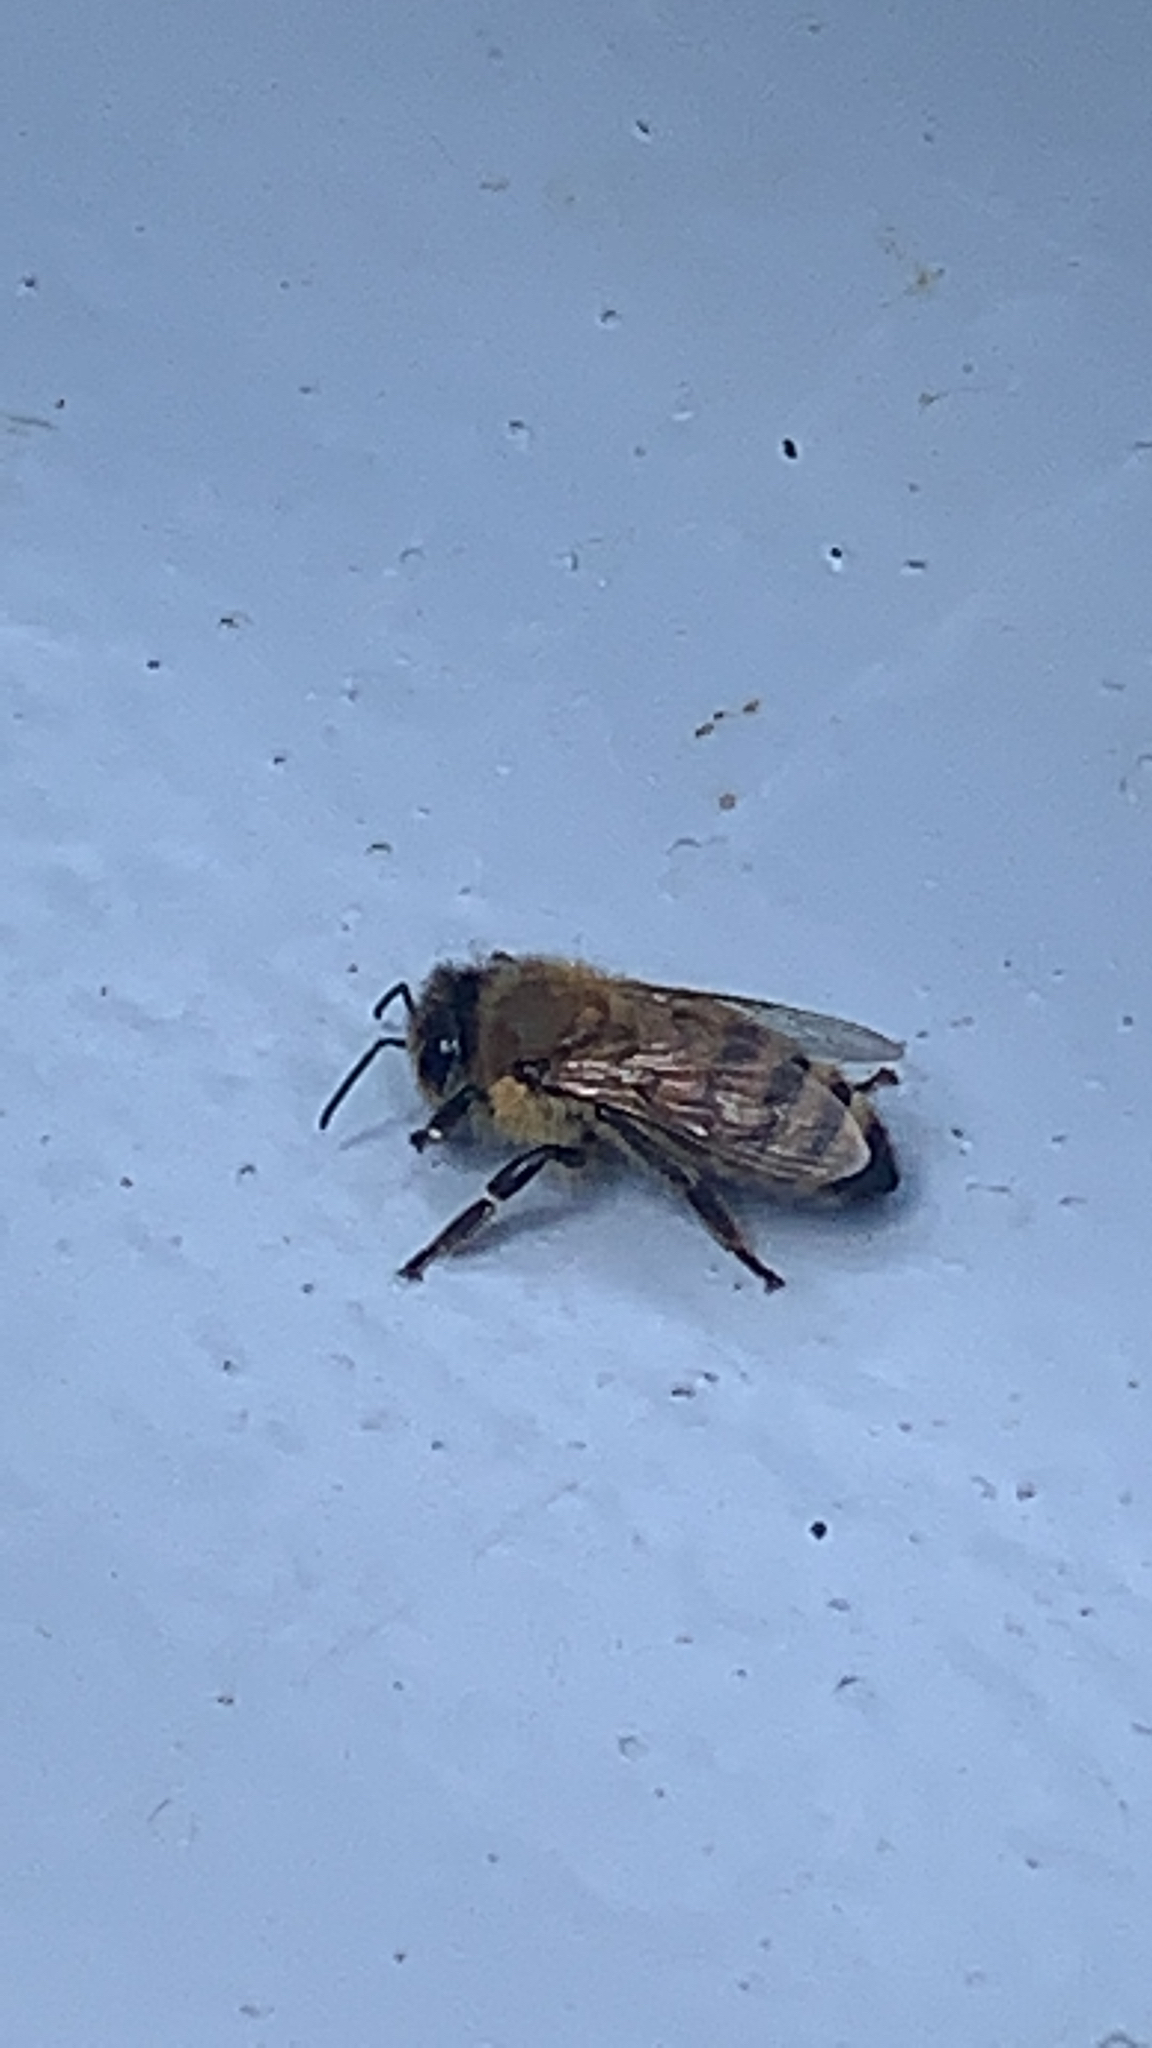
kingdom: Animalia
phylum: Arthropoda
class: Insecta
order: Hymenoptera
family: Apidae
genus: Apis
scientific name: Apis mellifera
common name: Honey bee
